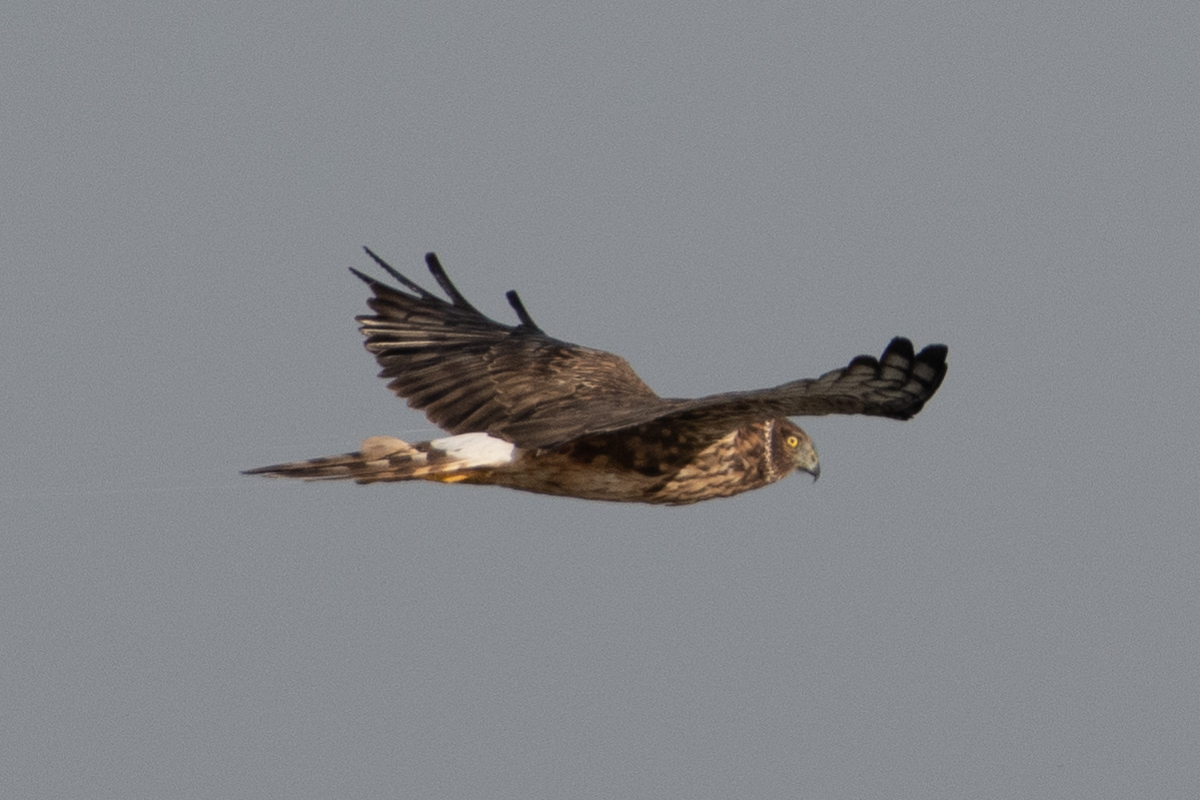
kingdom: Animalia
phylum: Chordata
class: Aves
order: Accipitriformes
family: Accipitridae
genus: Circus
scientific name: Circus cyaneus
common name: Hen harrier
